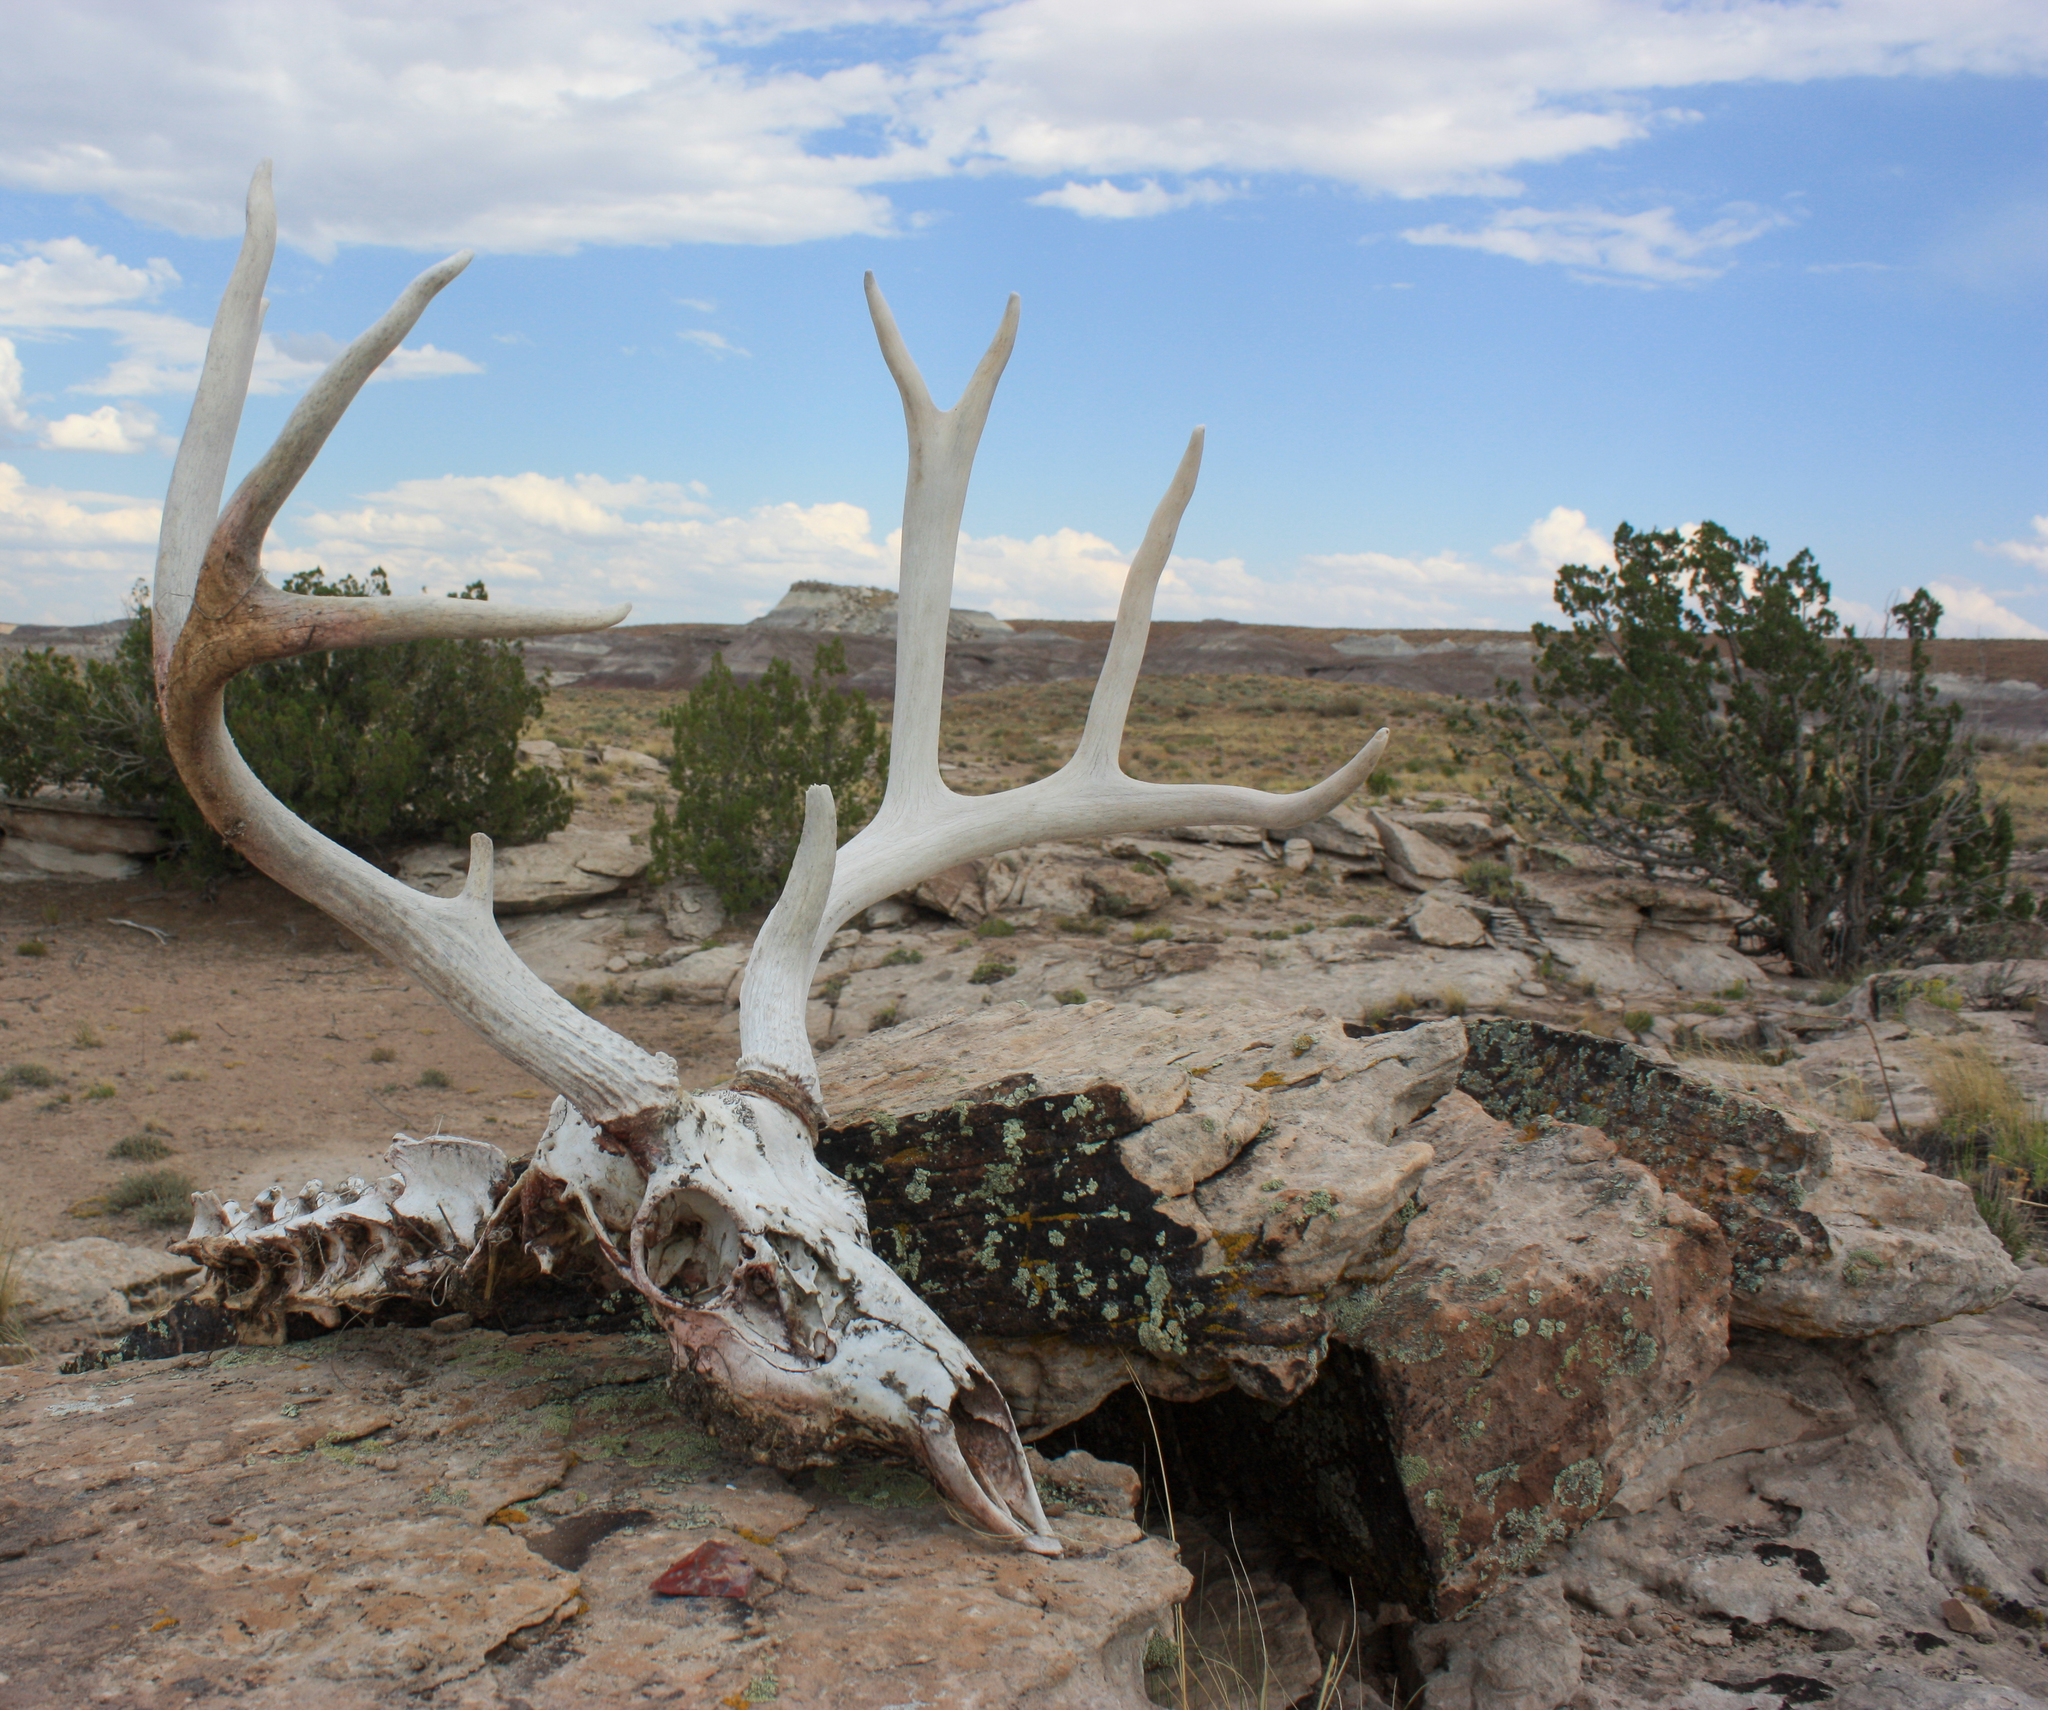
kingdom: Animalia
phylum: Chordata
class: Mammalia
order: Artiodactyla
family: Cervidae
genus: Odocoileus
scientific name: Odocoileus hemionus
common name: Mule deer
